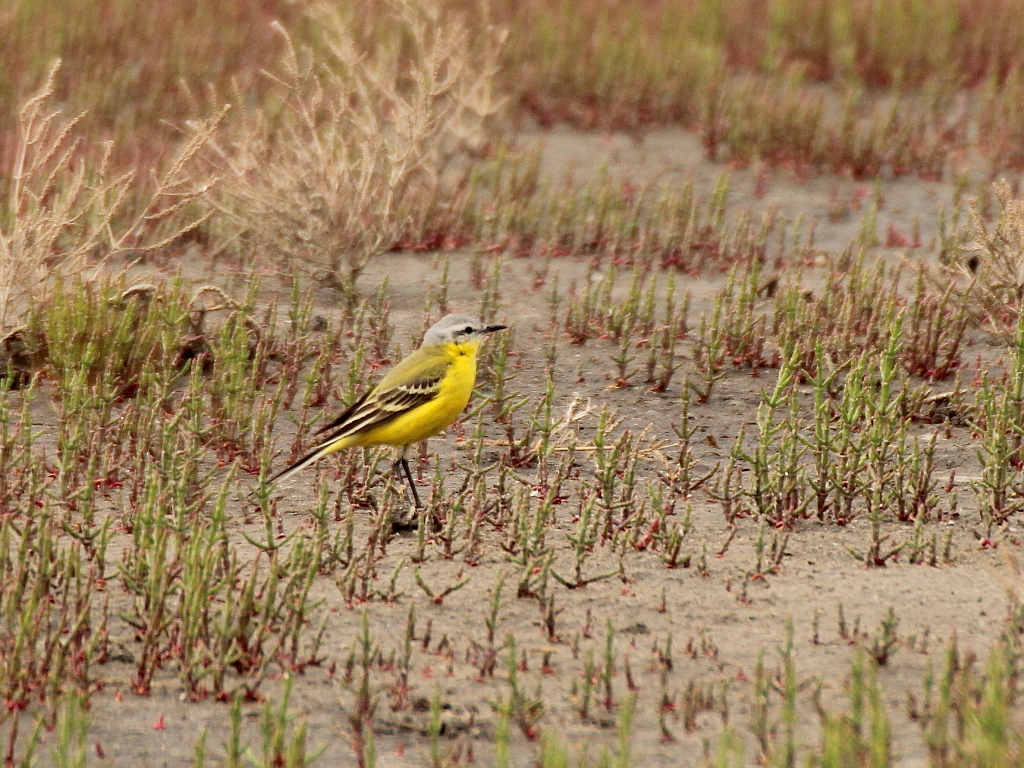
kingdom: Animalia
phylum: Chordata
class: Aves
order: Passeriformes
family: Motacillidae
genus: Motacilla
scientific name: Motacilla flava
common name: Western yellow wagtail
